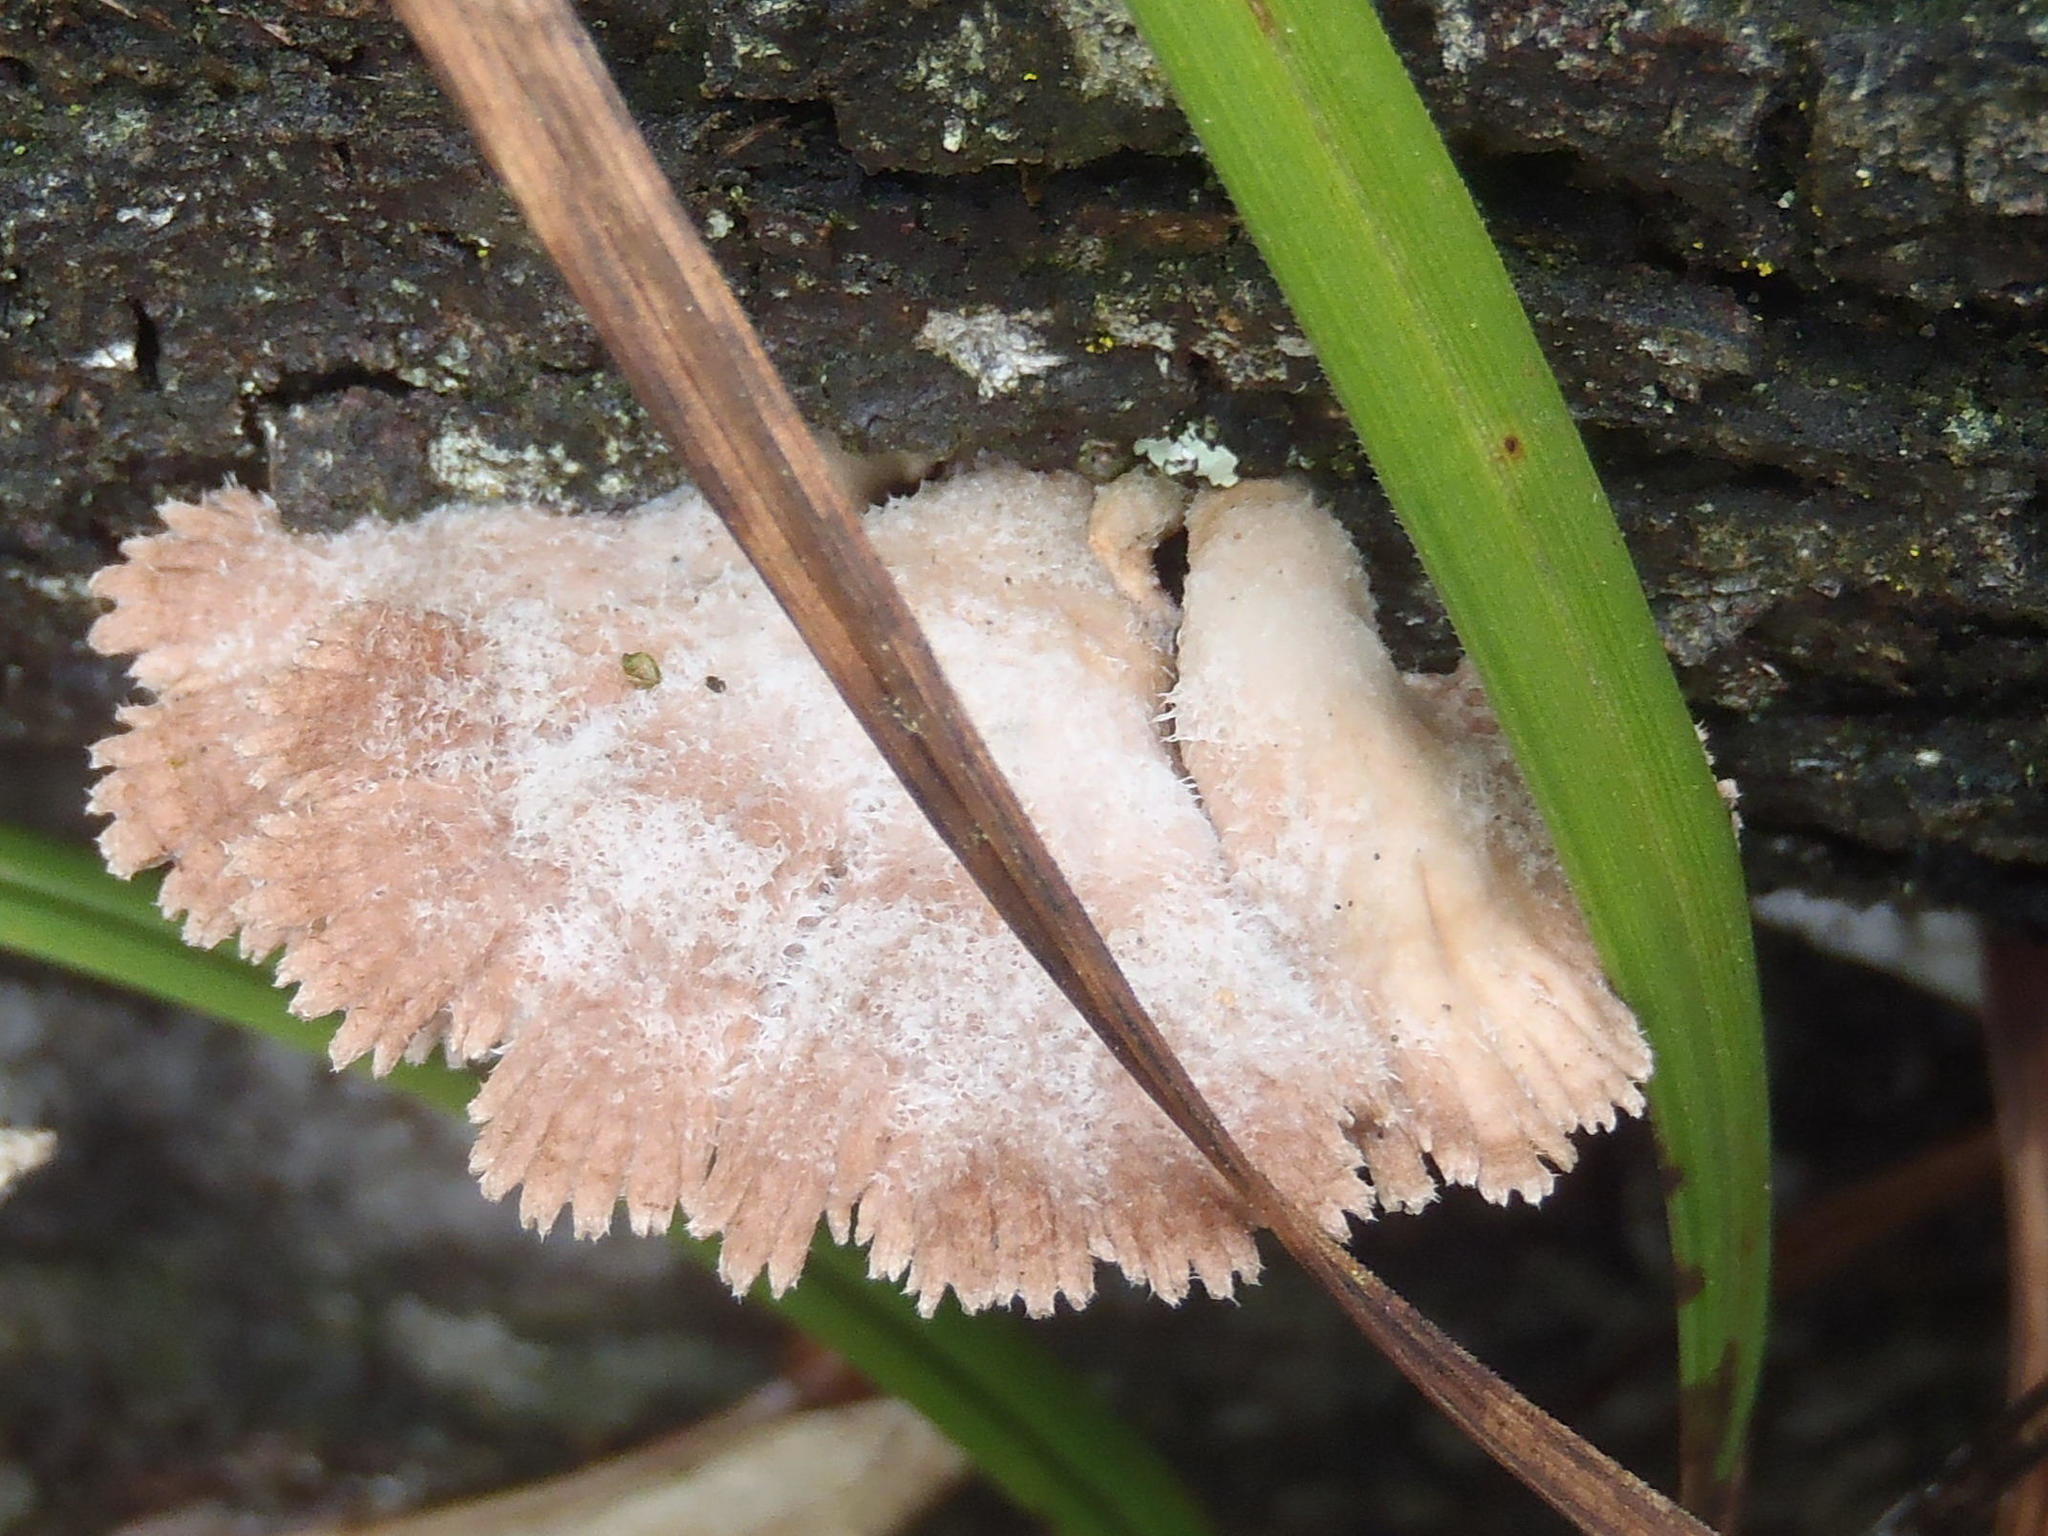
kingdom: Fungi
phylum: Basidiomycota
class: Agaricomycetes
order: Agaricales
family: Schizophyllaceae
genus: Schizophyllum
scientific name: Schizophyllum commune
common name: Common porecrust
